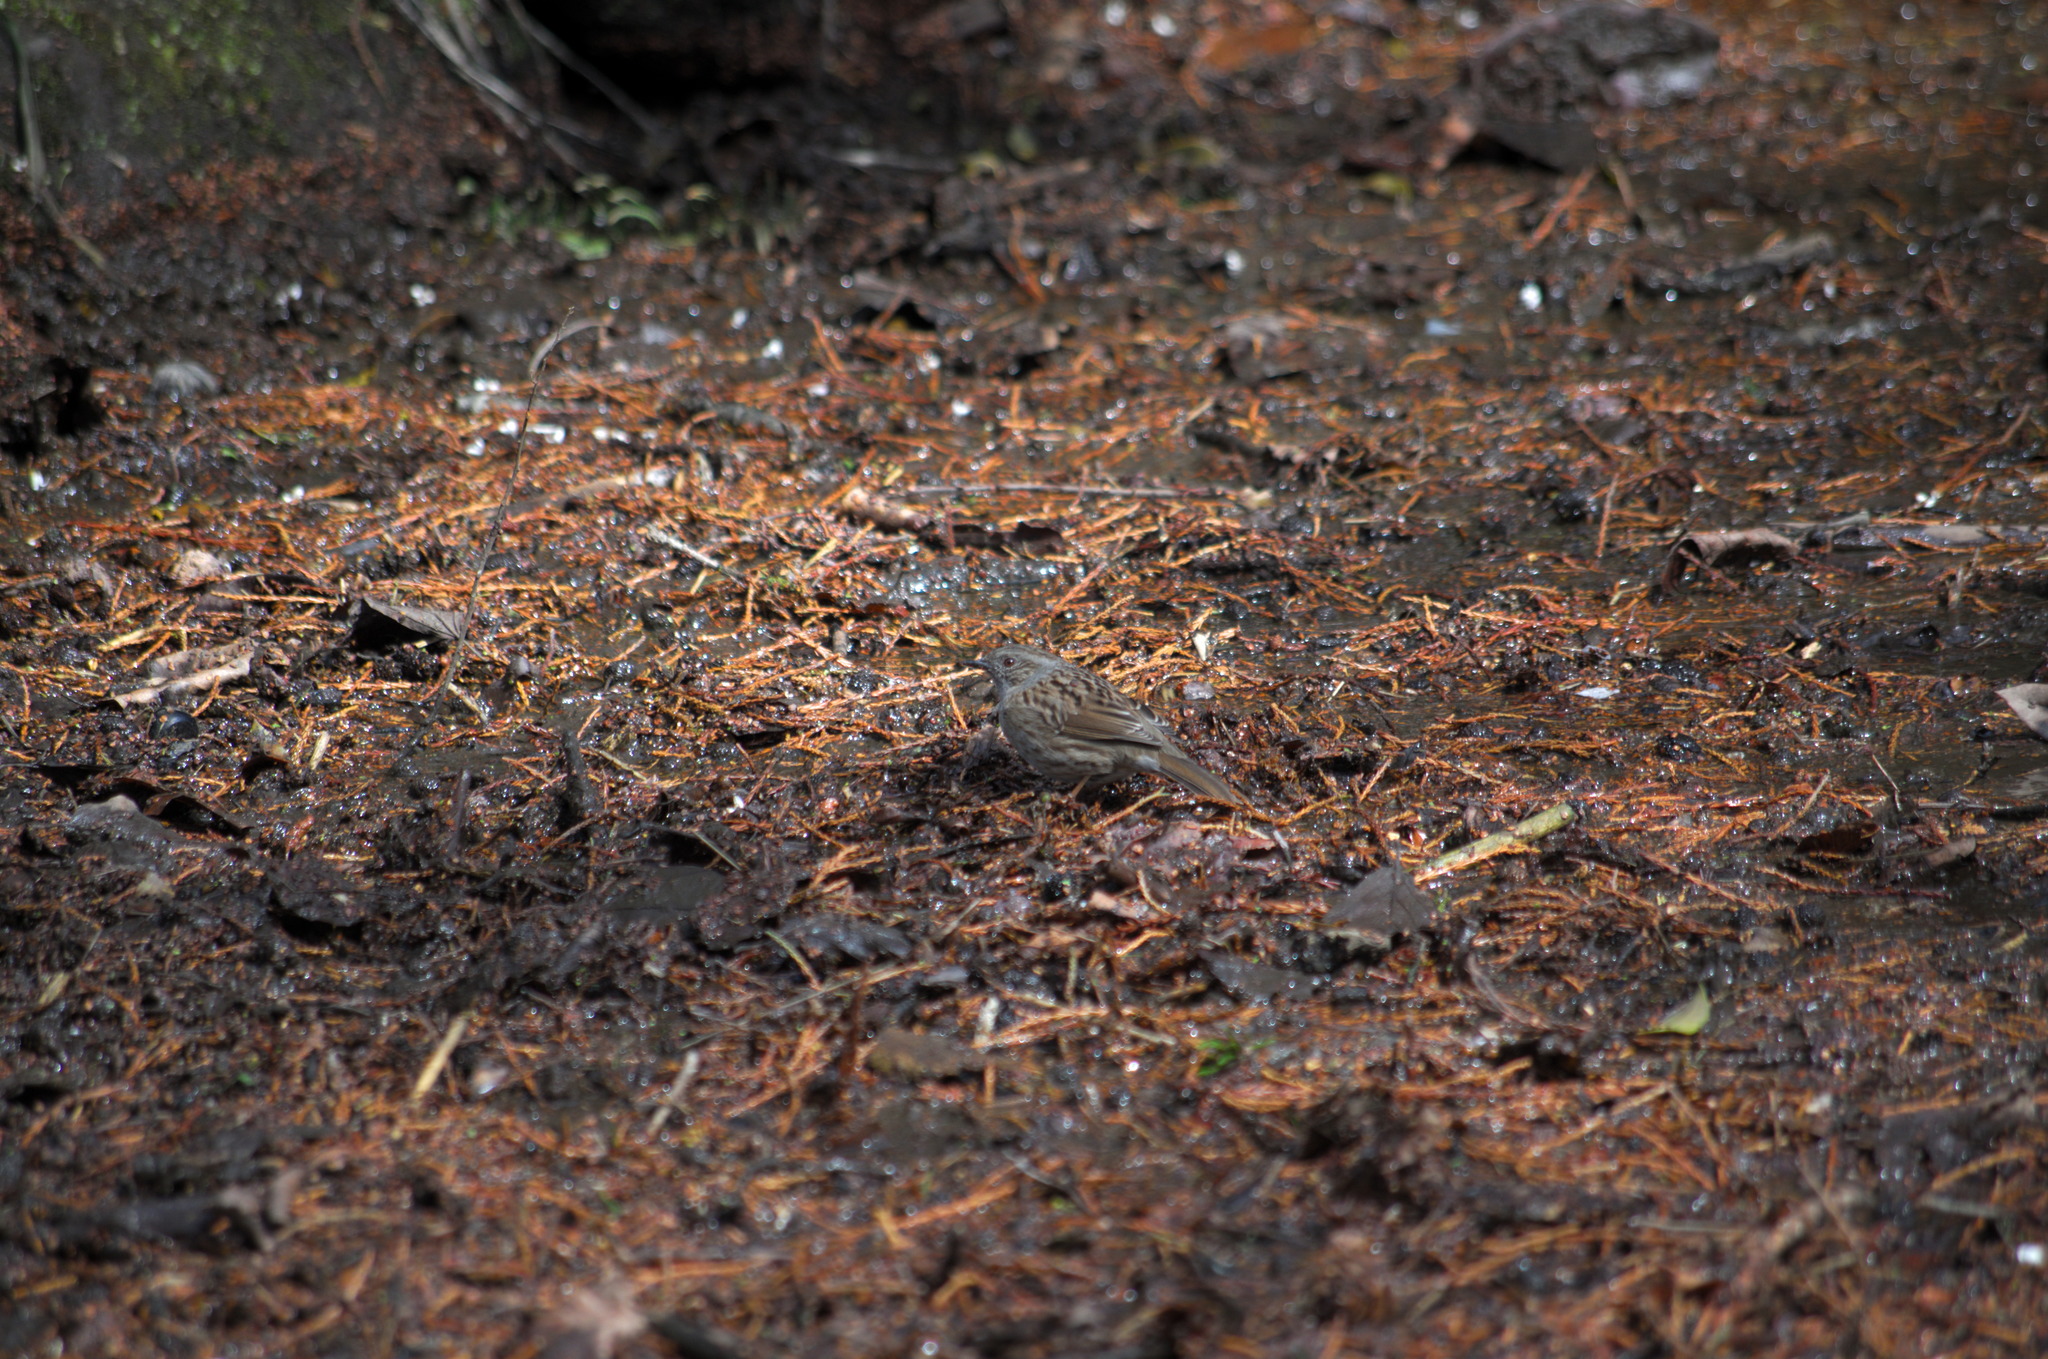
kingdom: Animalia
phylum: Chordata
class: Aves
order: Passeriformes
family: Prunellidae
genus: Prunella
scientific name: Prunella modularis
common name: Dunnock
